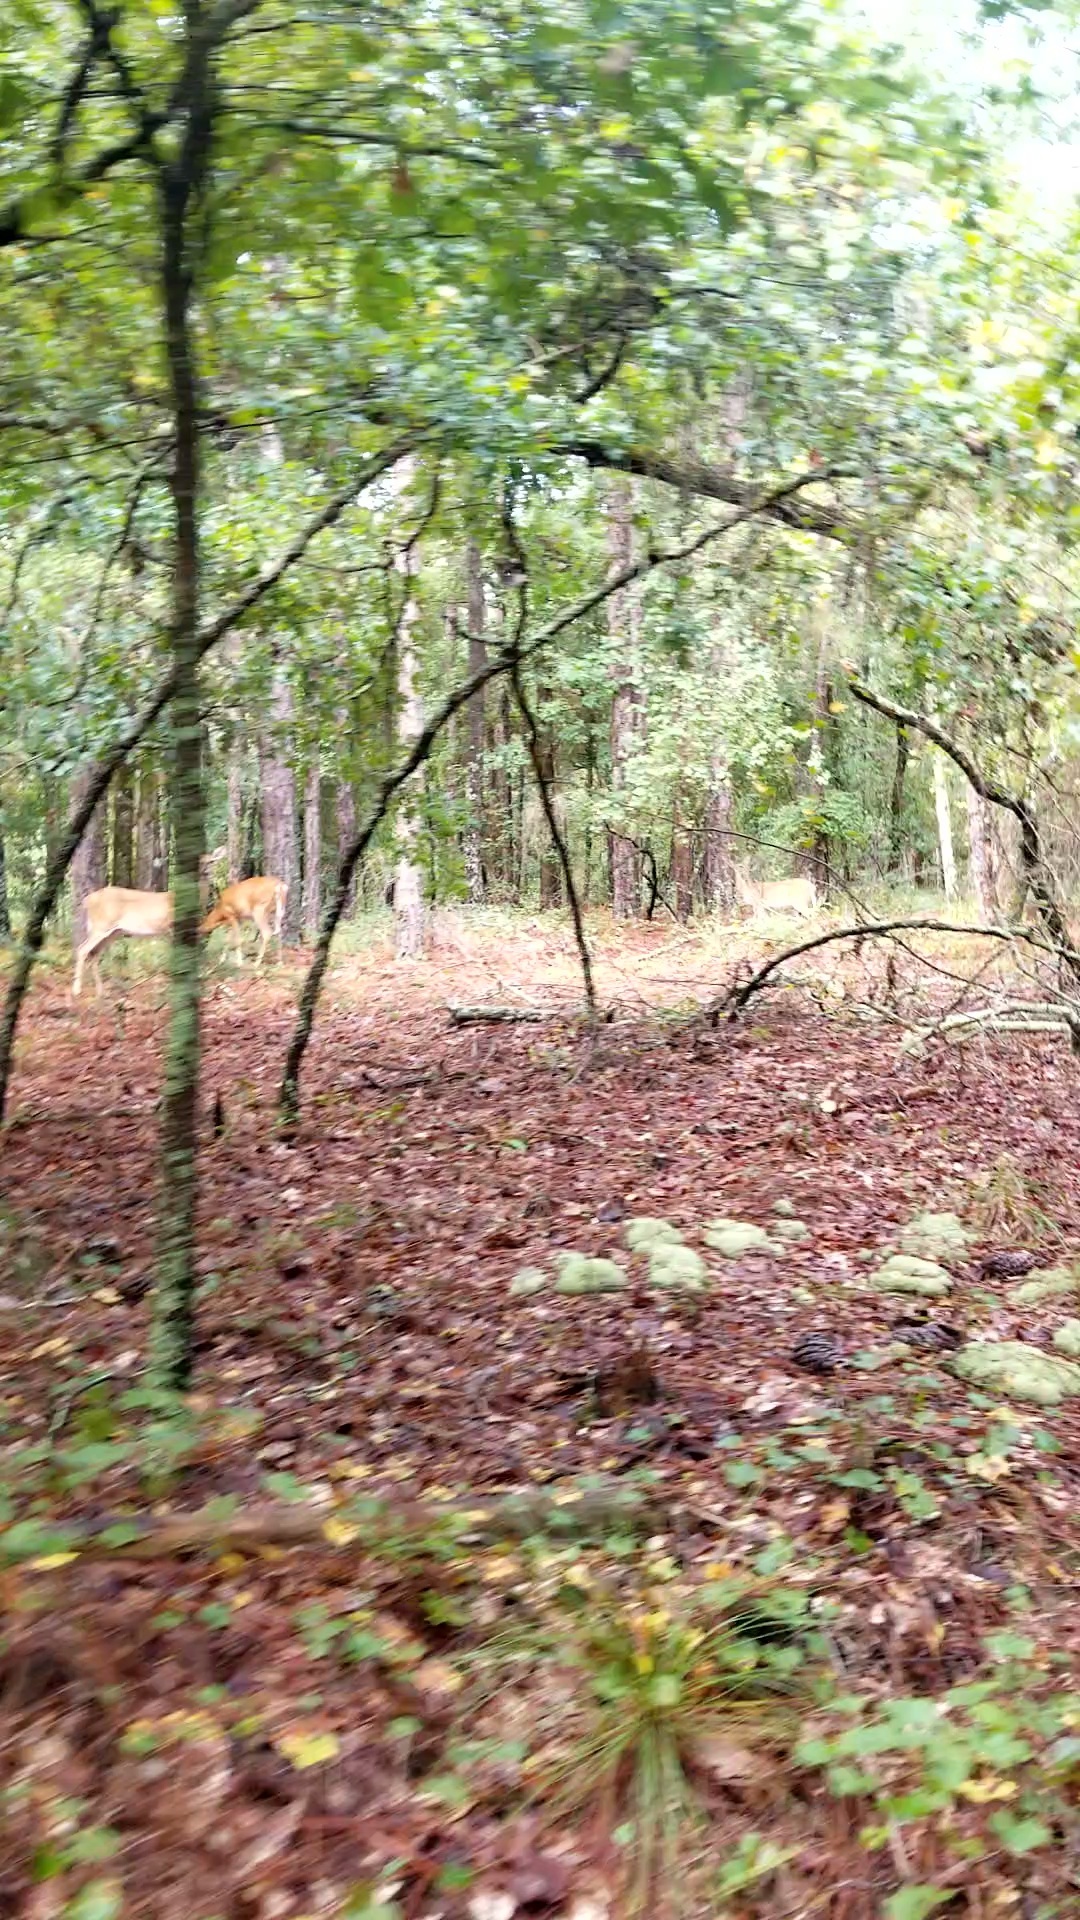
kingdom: Animalia
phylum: Chordata
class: Mammalia
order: Artiodactyla
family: Cervidae
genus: Odocoileus
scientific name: Odocoileus virginianus
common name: White-tailed deer
